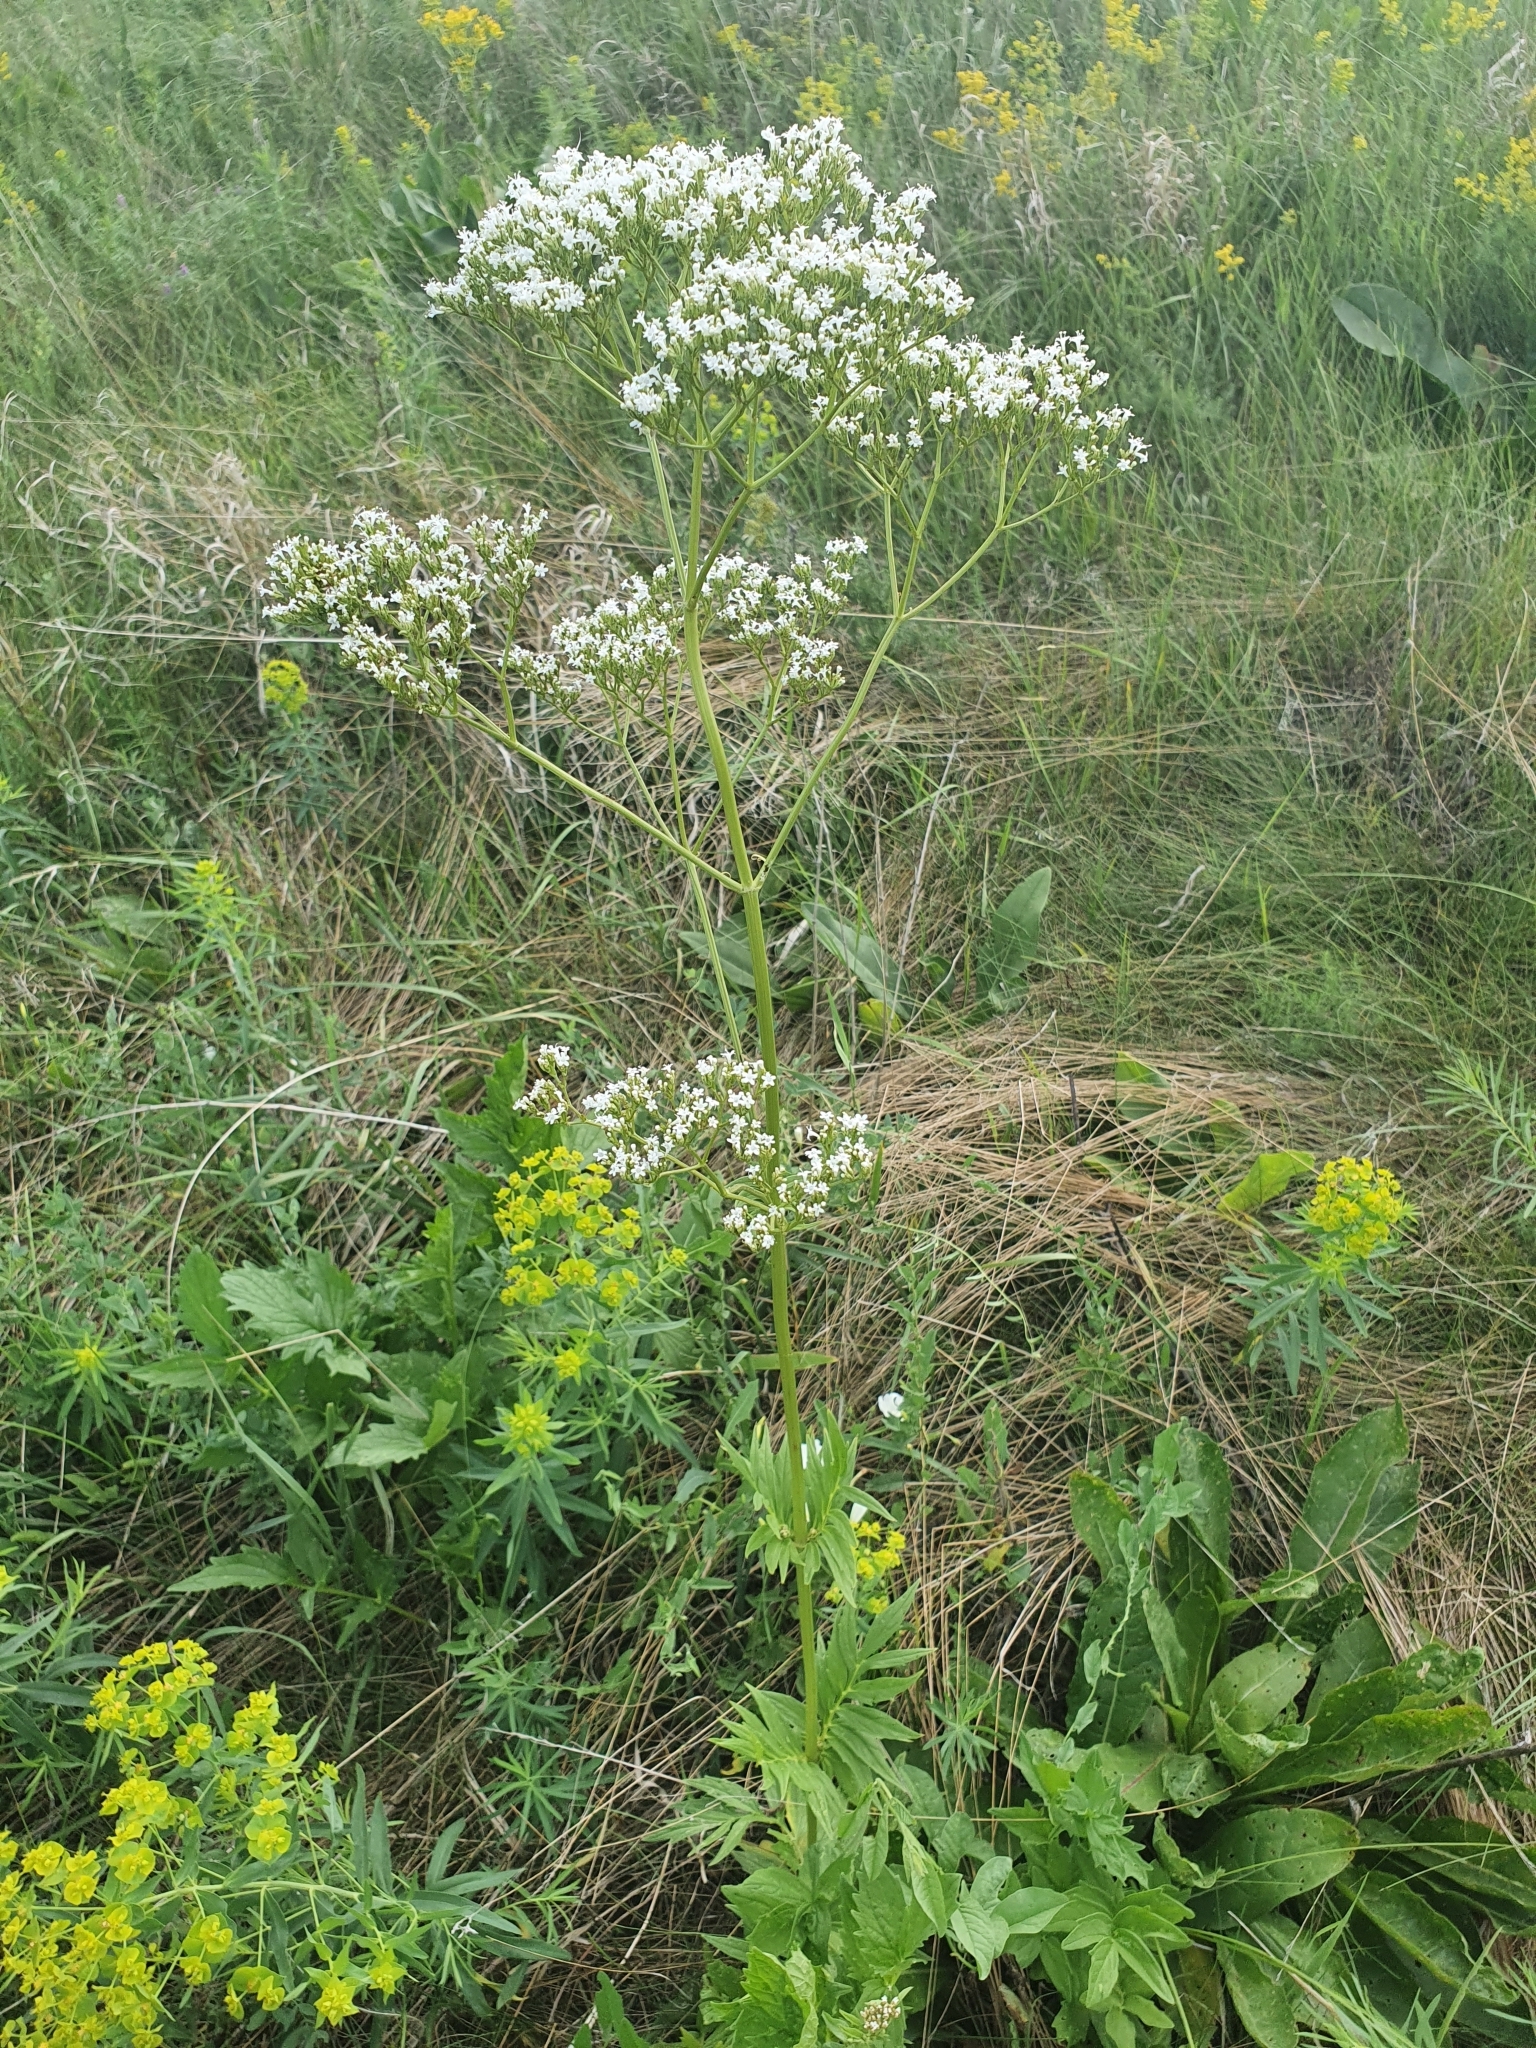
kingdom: Plantae
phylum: Tracheophyta
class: Magnoliopsida
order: Dipsacales
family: Caprifoliaceae
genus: Valeriana
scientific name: Valeriana officinalis
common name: Common valerian
